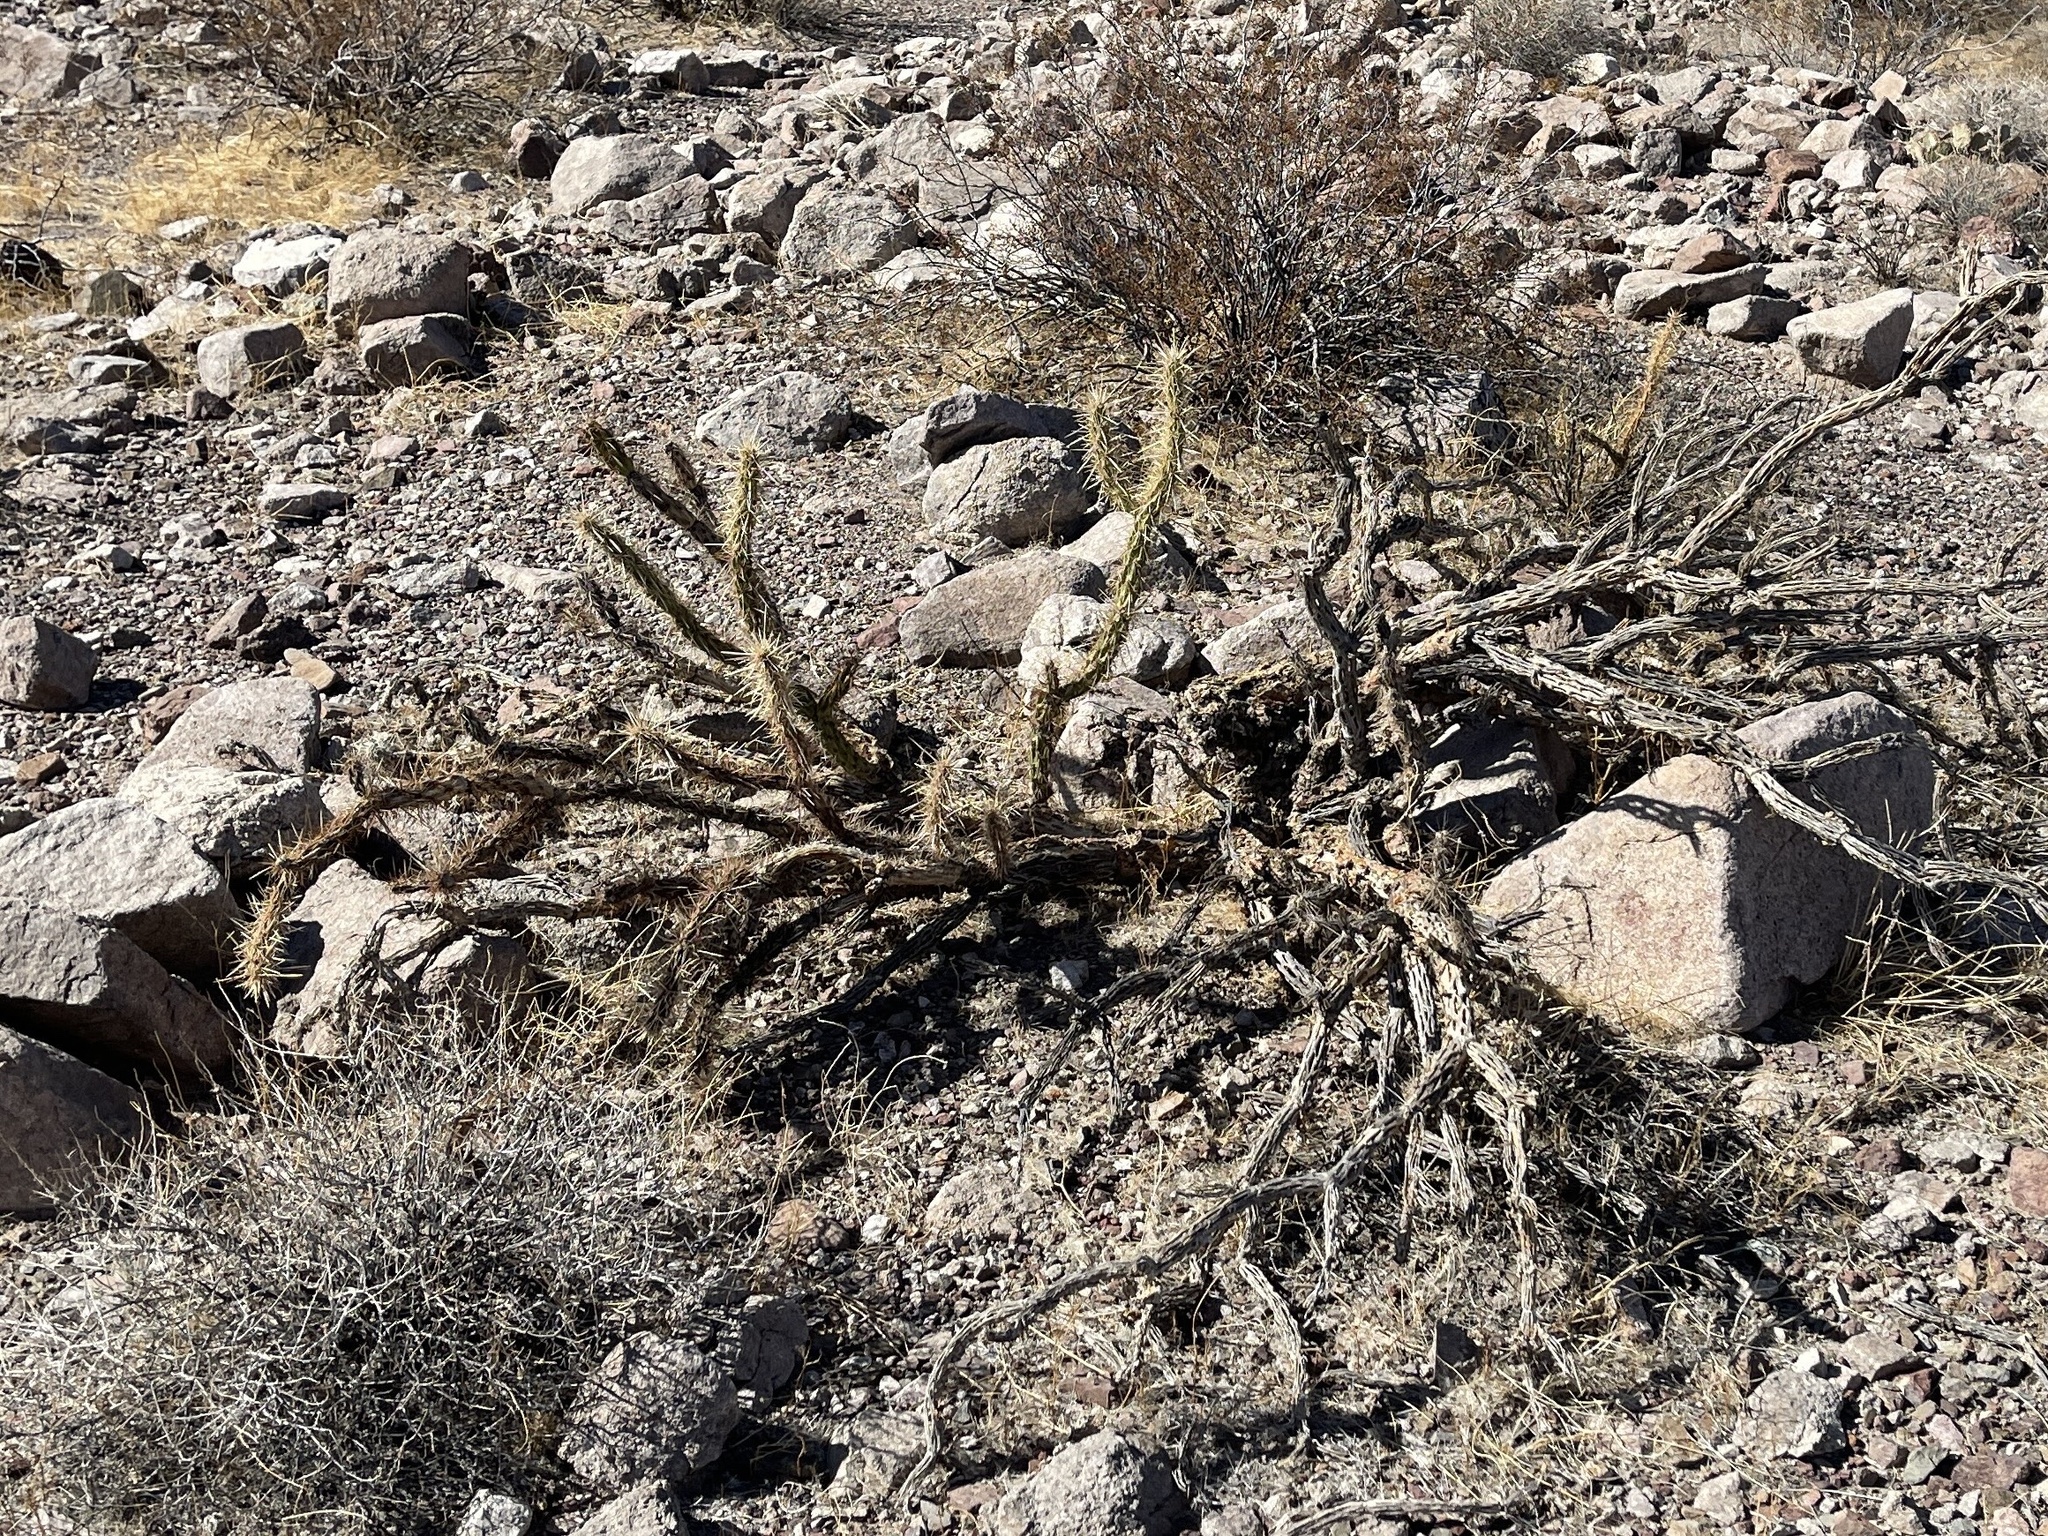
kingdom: Plantae
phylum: Tracheophyta
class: Magnoliopsida
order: Caryophyllales
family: Cactaceae
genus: Cylindropuntia
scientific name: Cylindropuntia acanthocarpa
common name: Buckhorn cholla
